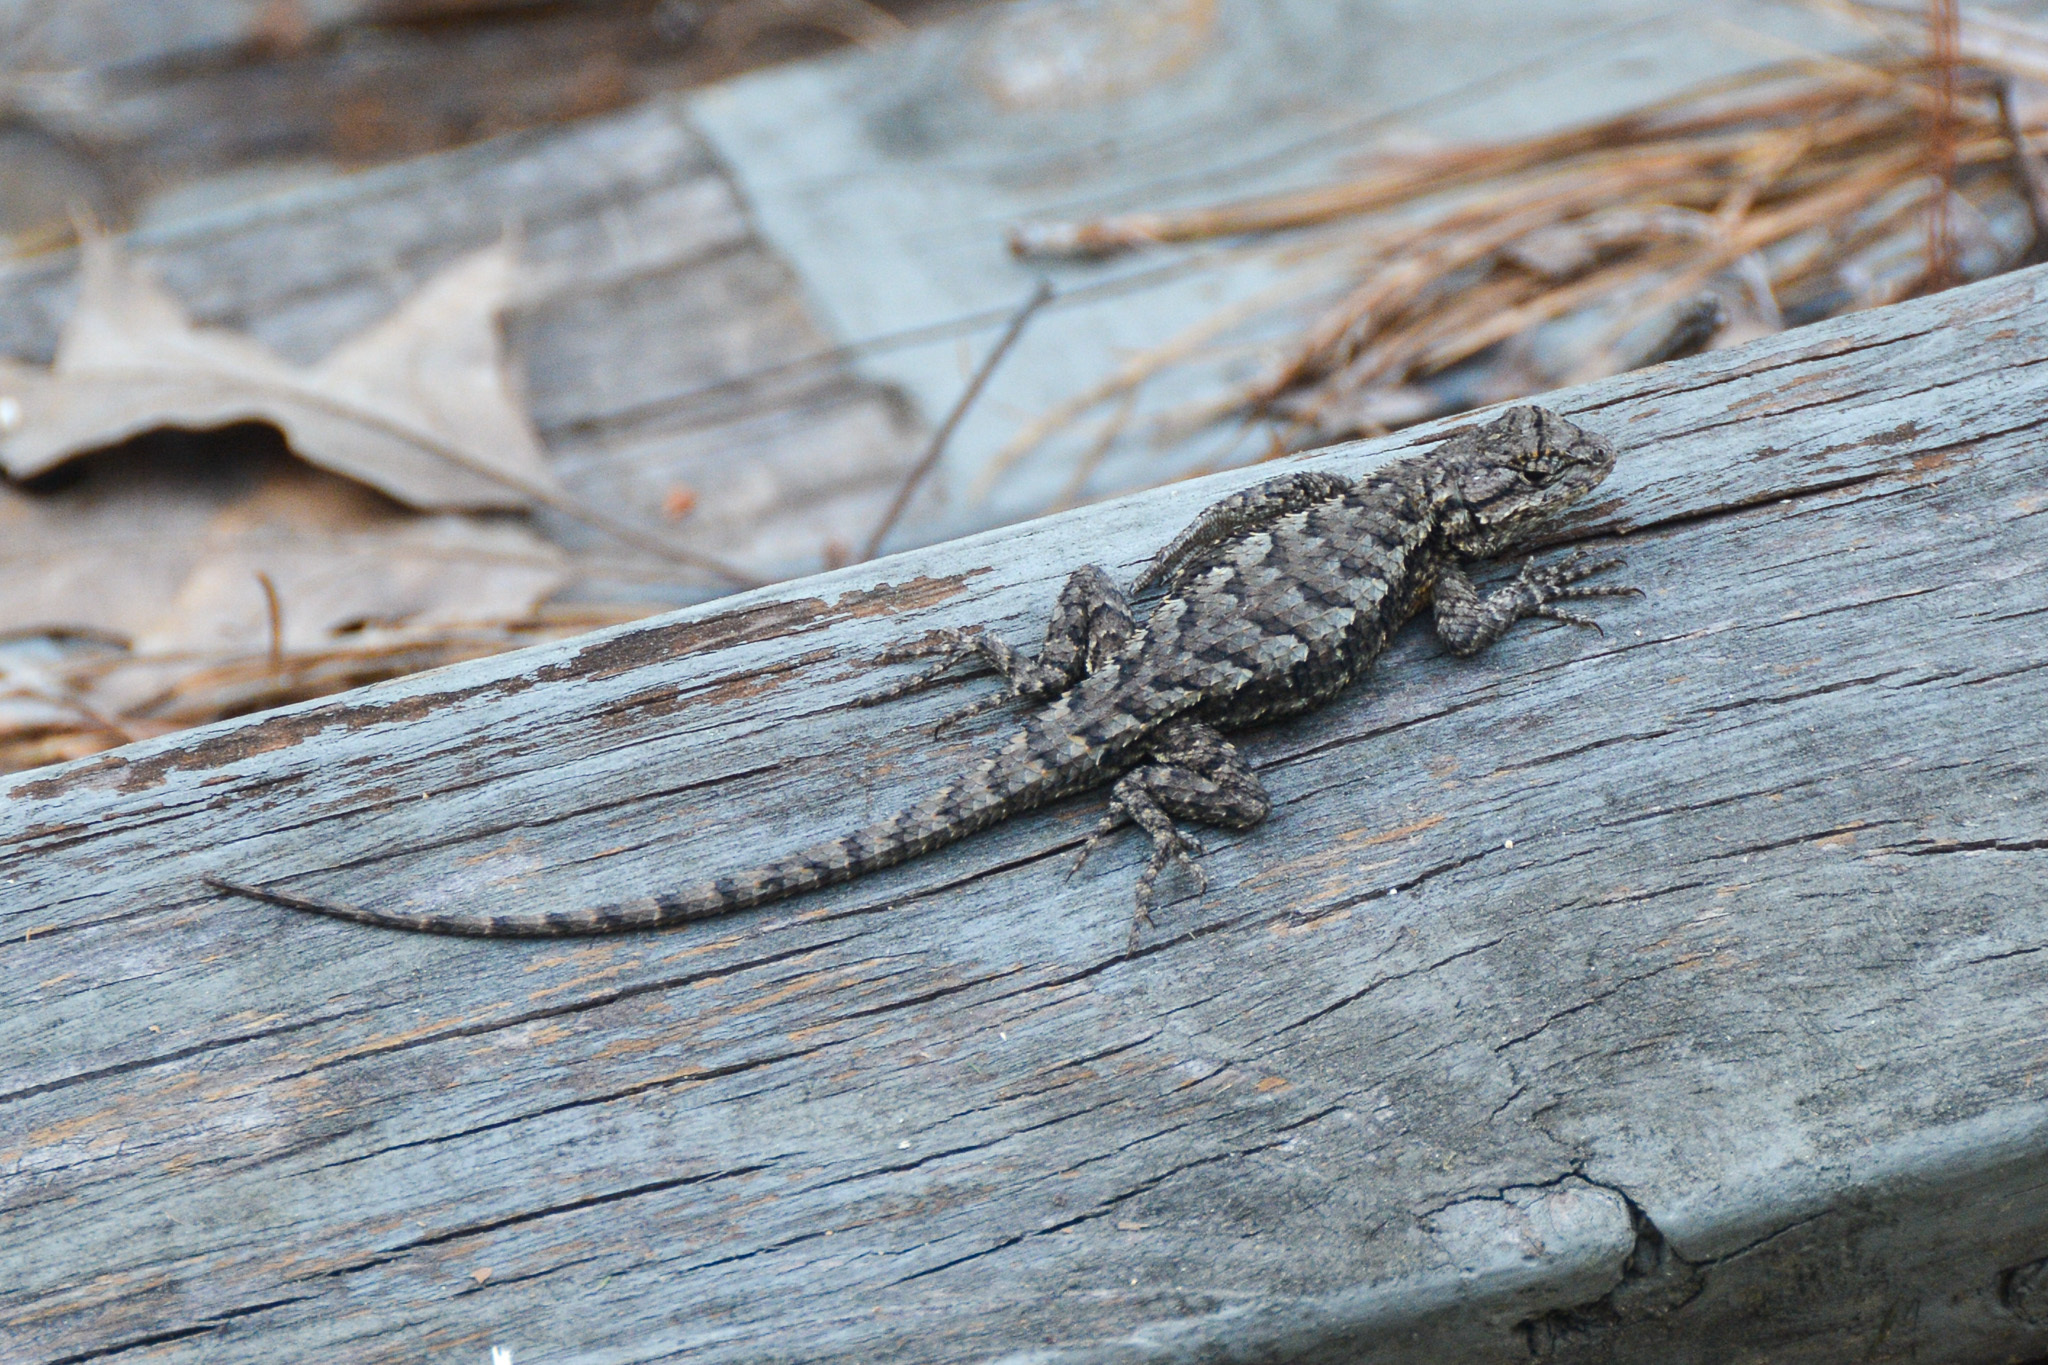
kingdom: Animalia
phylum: Chordata
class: Squamata
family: Phrynosomatidae
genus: Sceloporus
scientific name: Sceloporus consobrinus
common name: Southern prairie lizard
